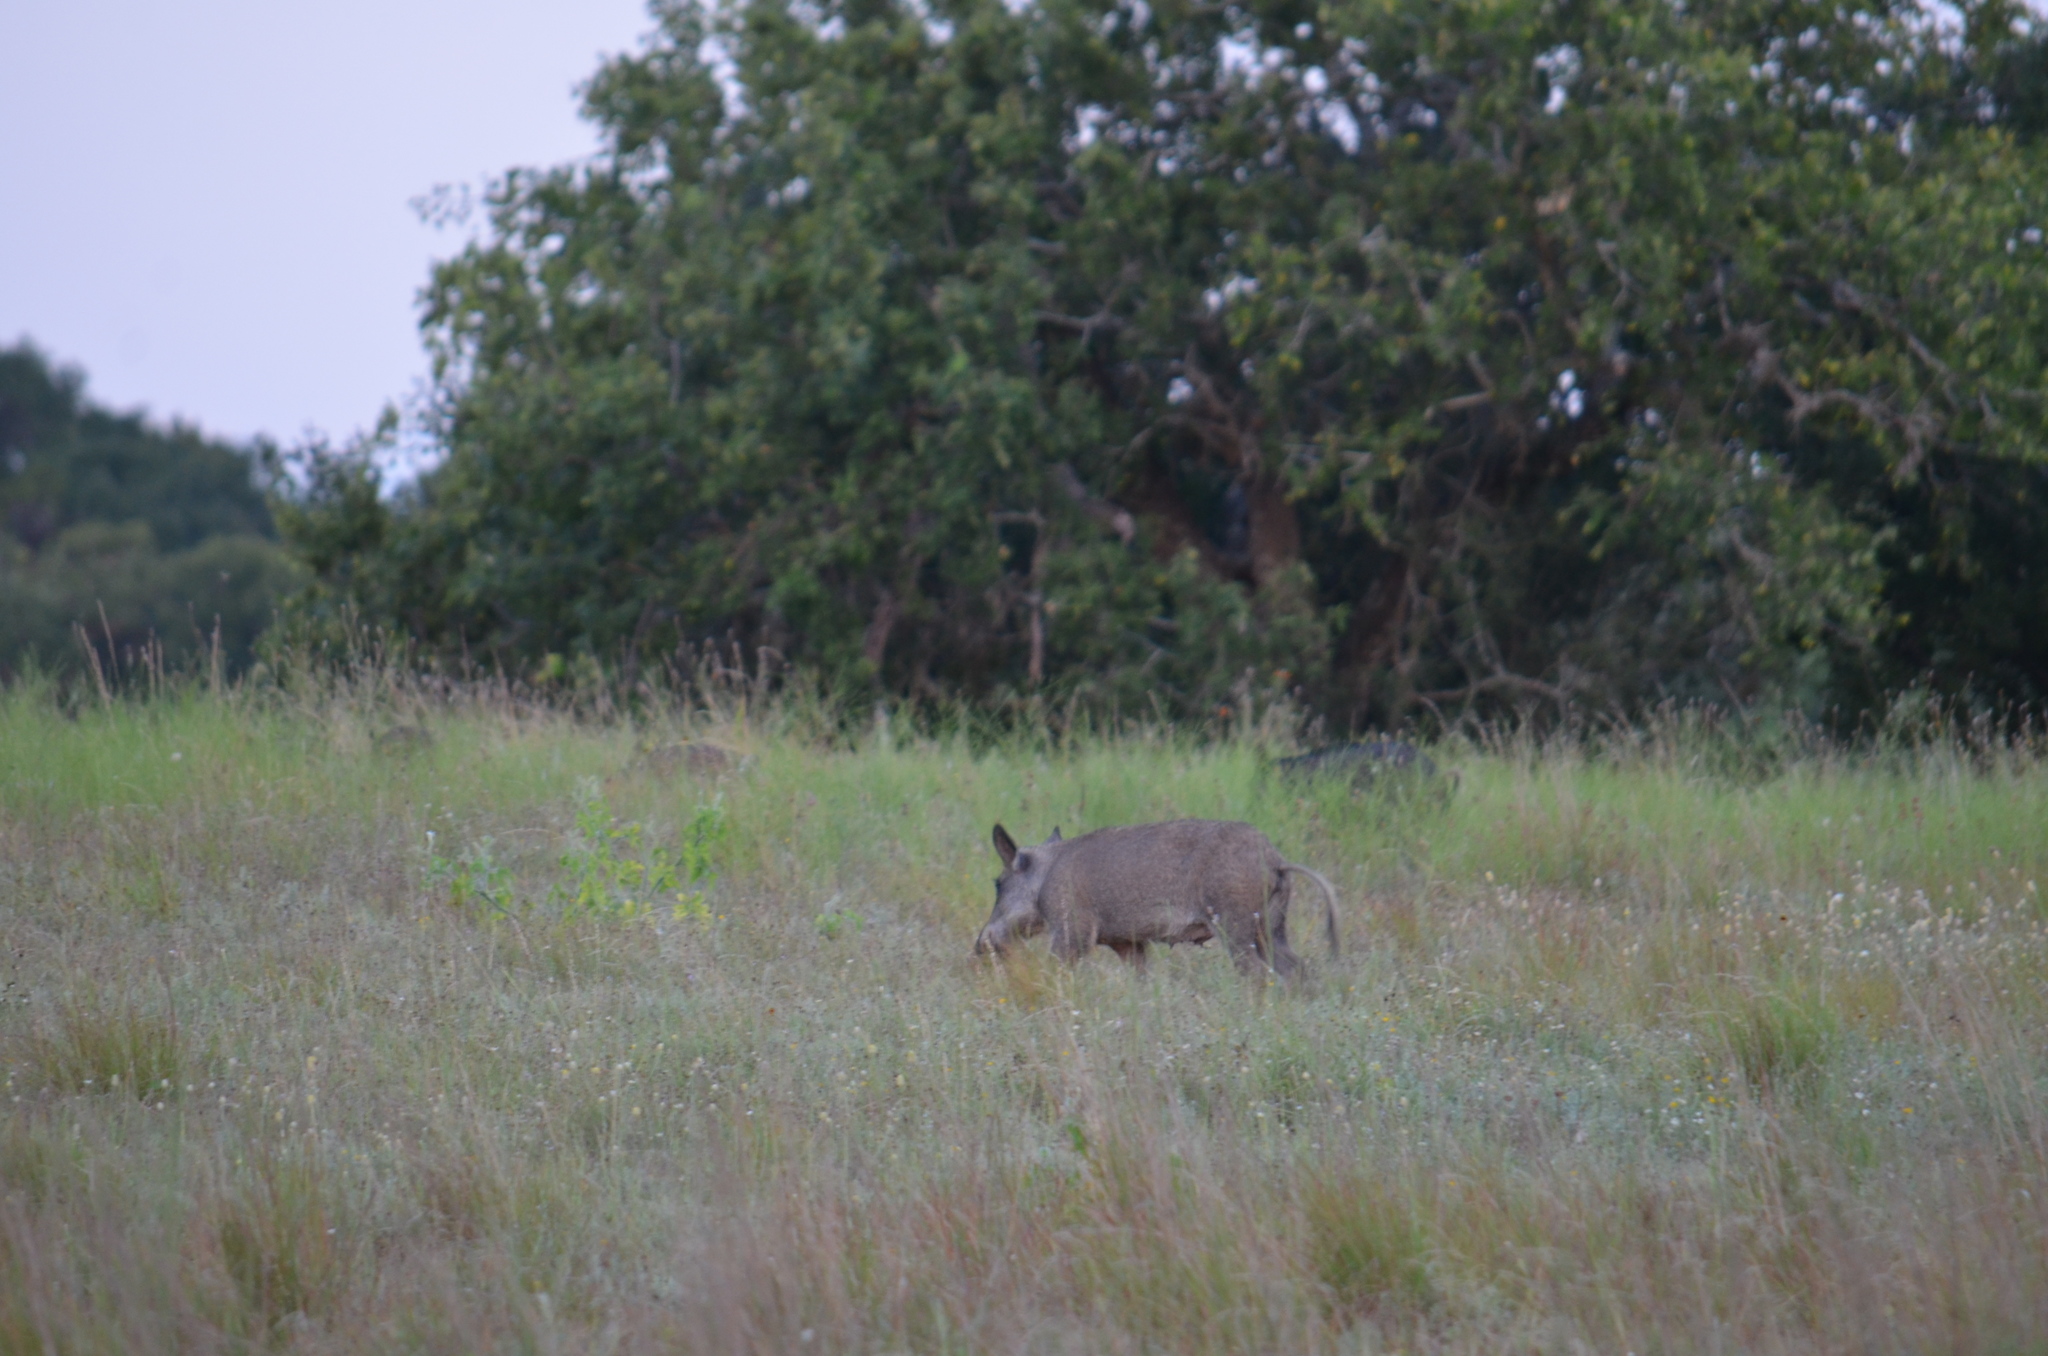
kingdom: Animalia
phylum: Chordata
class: Mammalia
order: Artiodactyla
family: Suidae
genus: Sus
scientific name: Sus scrofa
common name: Wild boar
